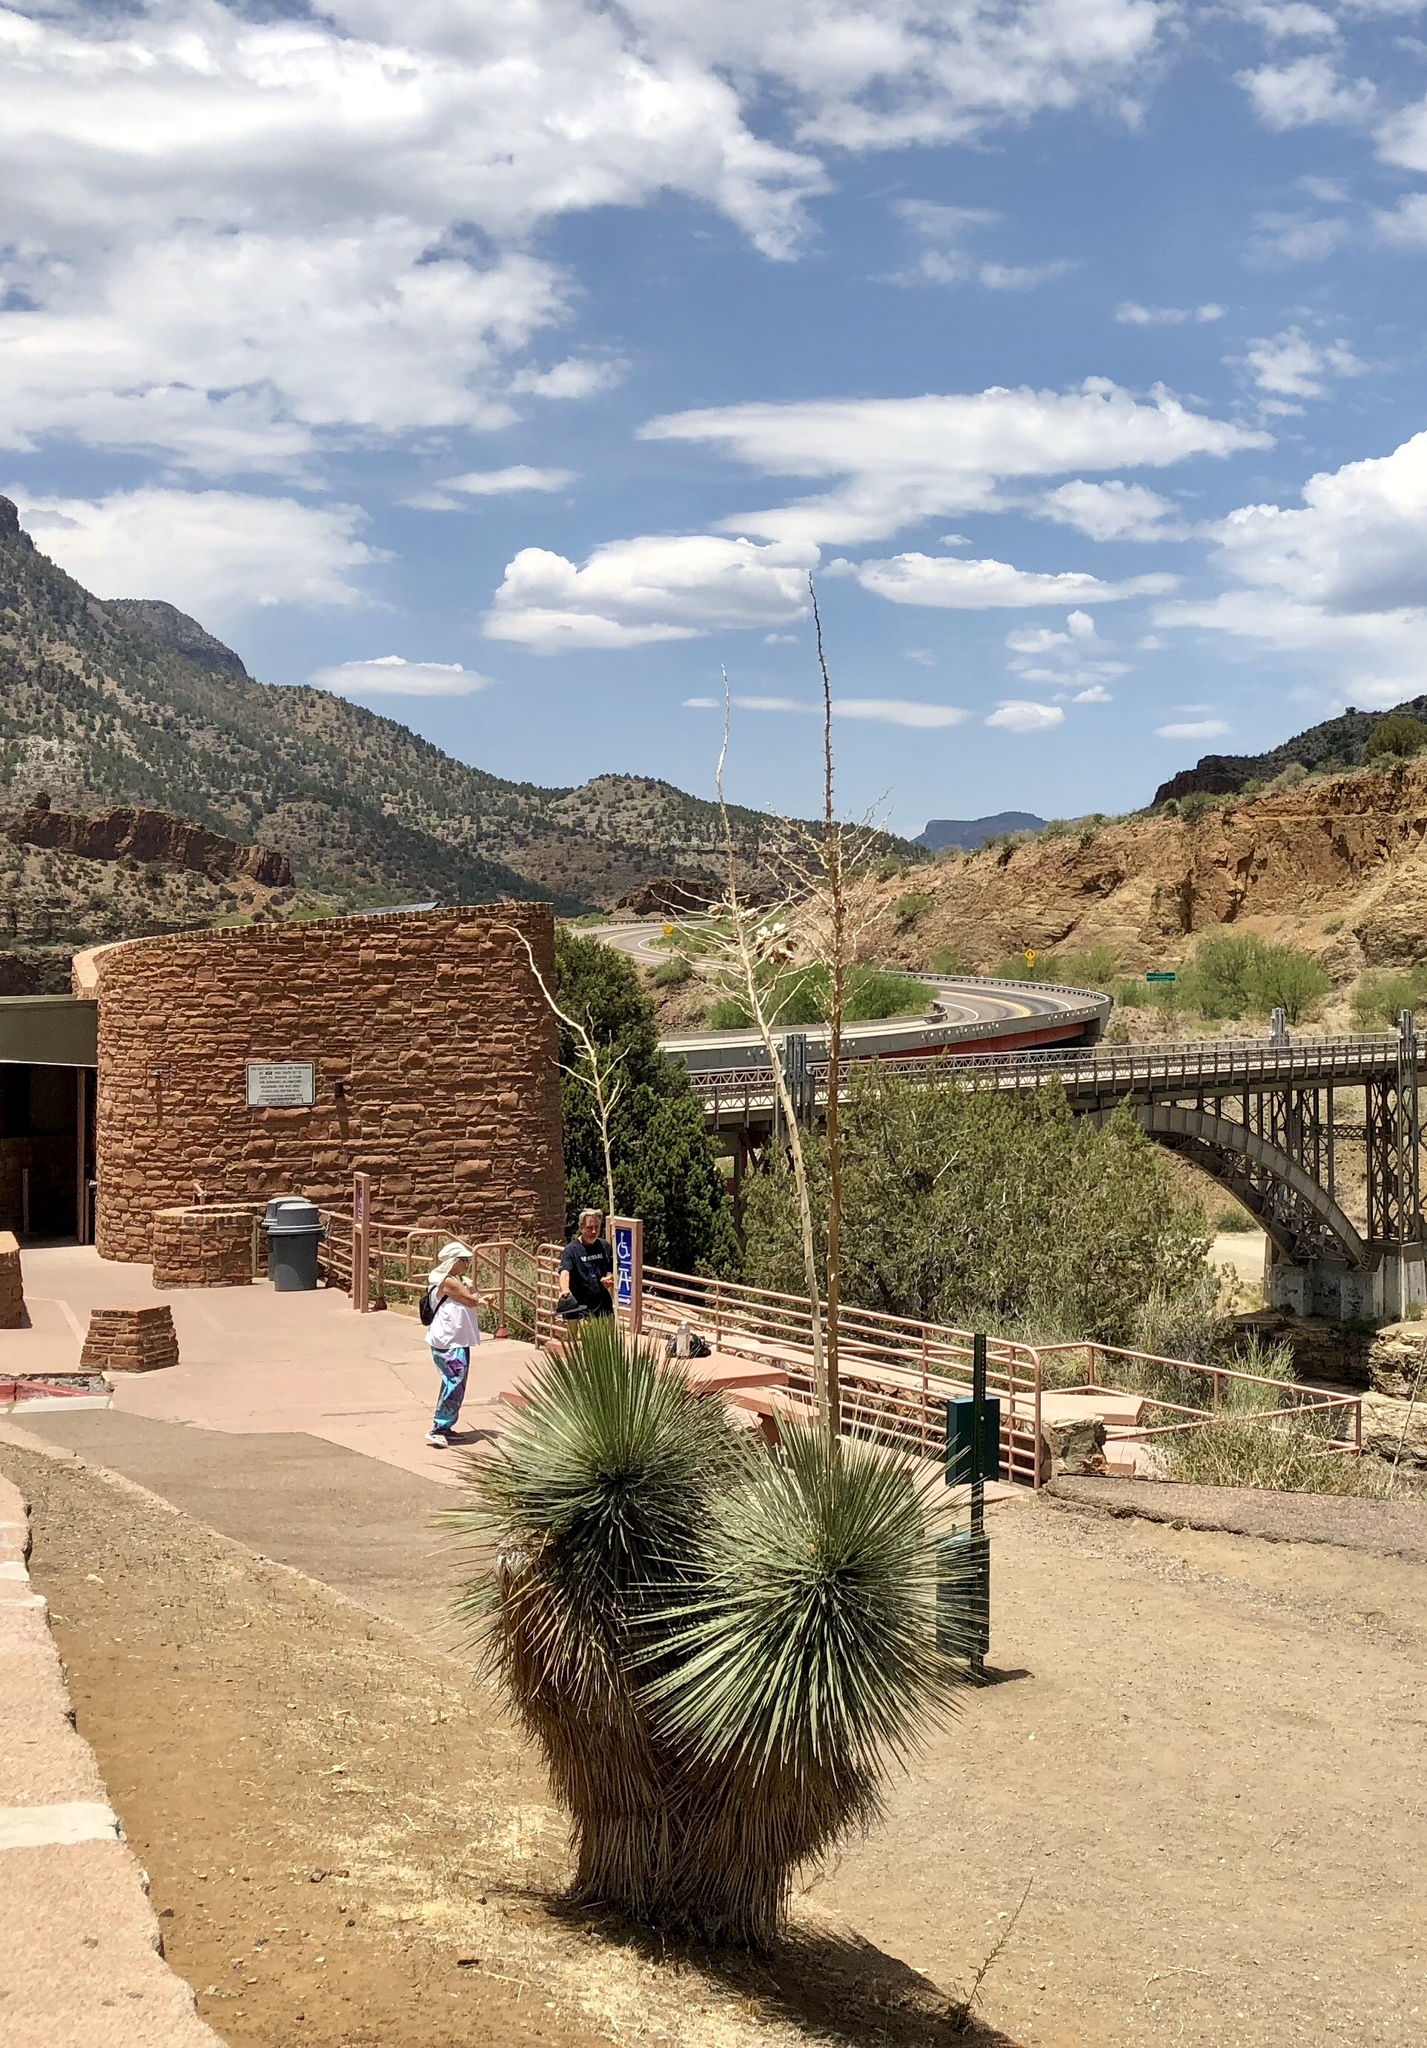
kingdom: Plantae
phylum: Tracheophyta
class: Liliopsida
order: Asparagales
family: Asparagaceae
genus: Yucca
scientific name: Yucca elata
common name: Palmella
